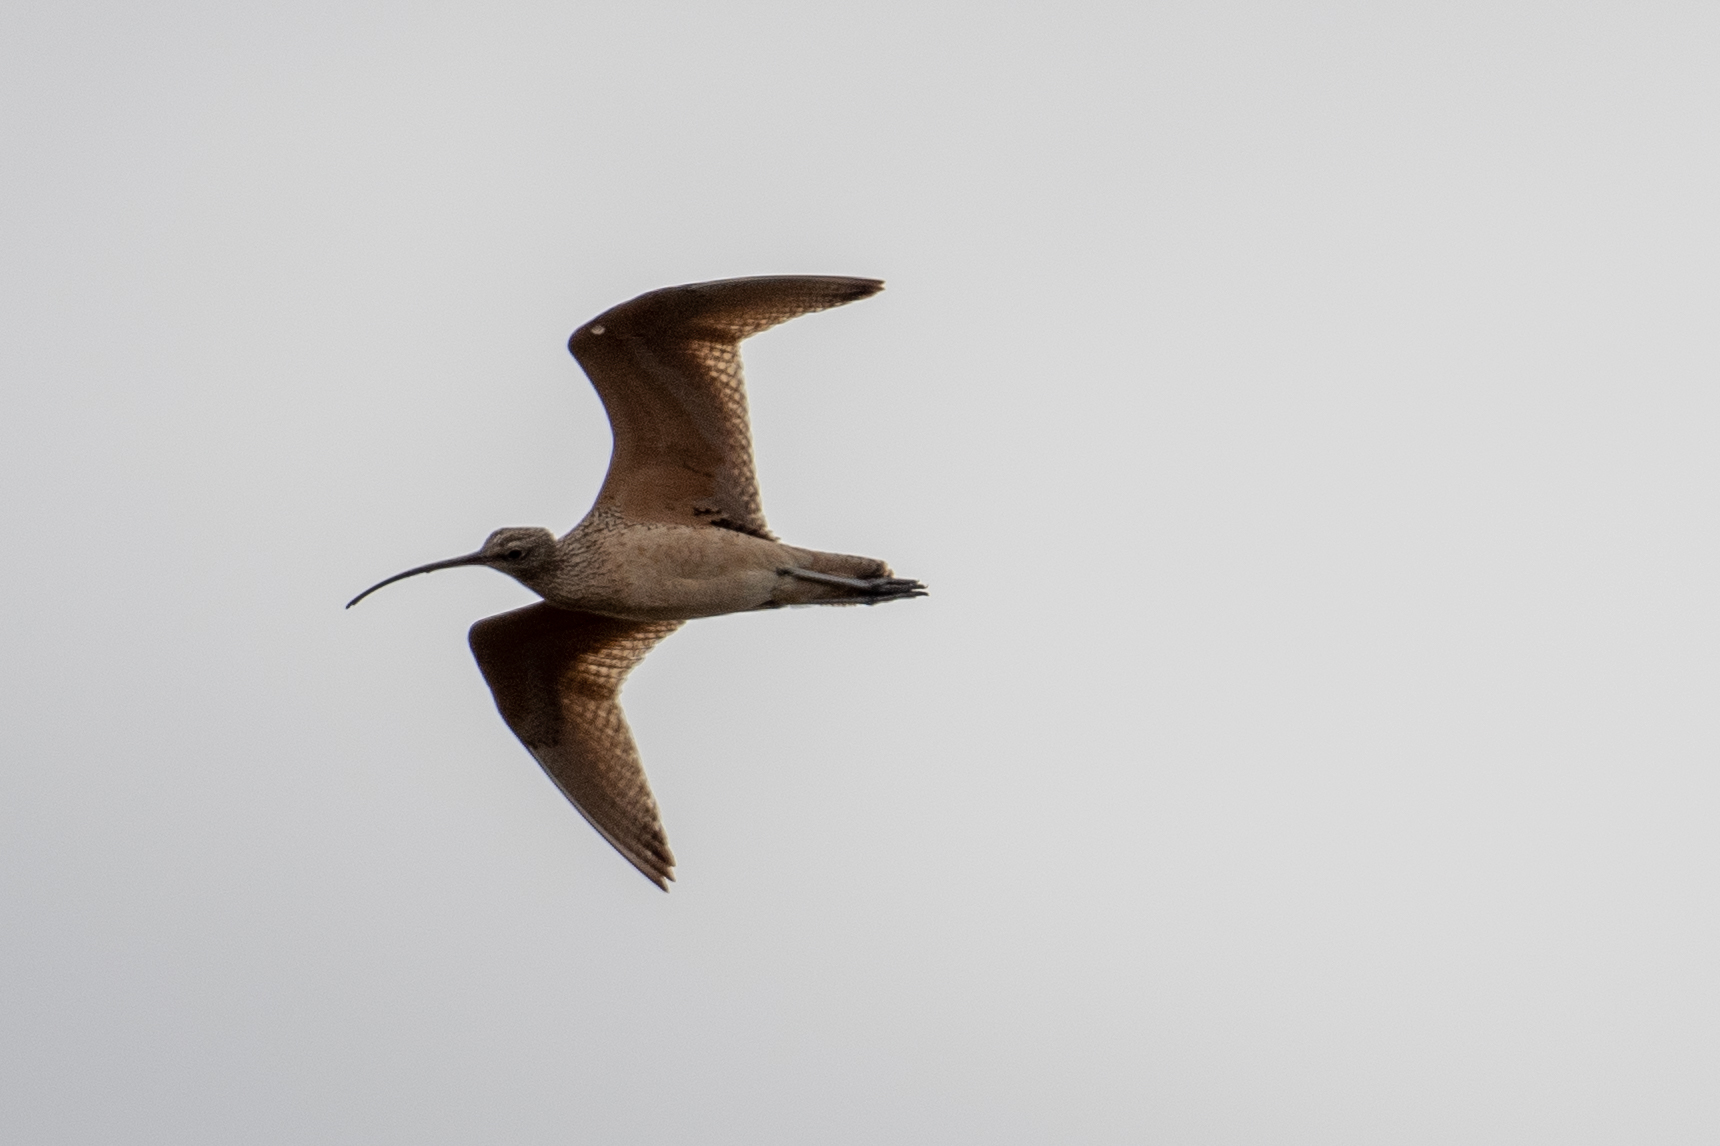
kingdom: Animalia
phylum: Chordata
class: Aves
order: Charadriiformes
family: Scolopacidae
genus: Numenius
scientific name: Numenius americanus
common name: Long-billed curlew
